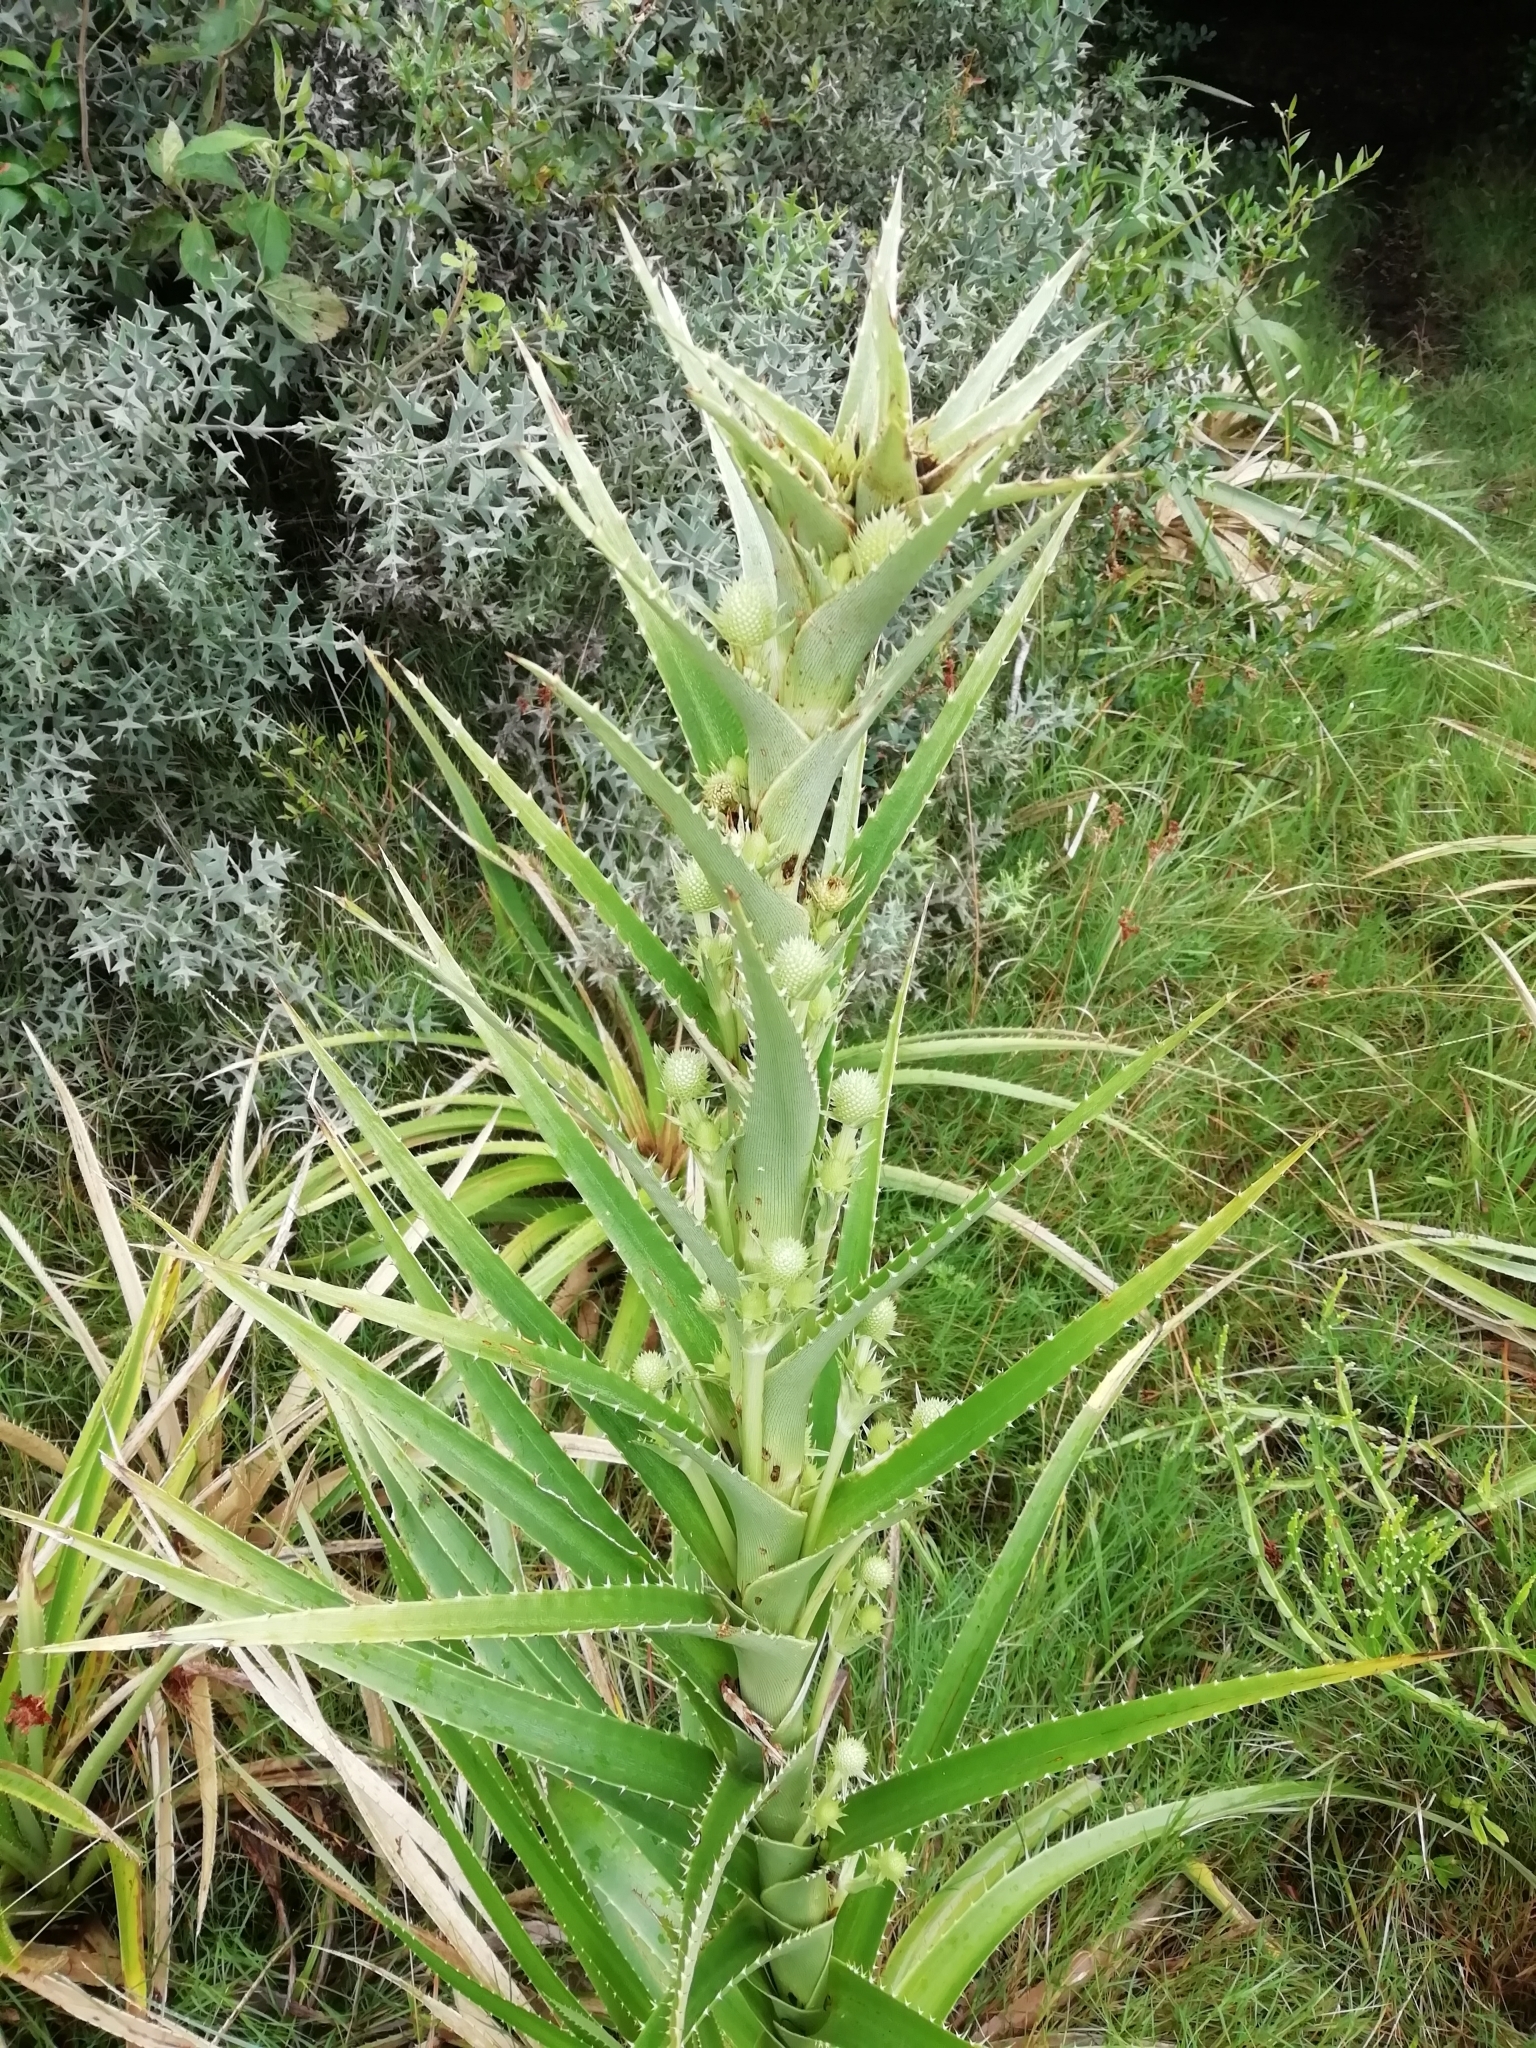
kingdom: Plantae
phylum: Tracheophyta
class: Magnoliopsida
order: Apiales
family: Apiaceae
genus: Eryngium
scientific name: Eryngium eburneum
